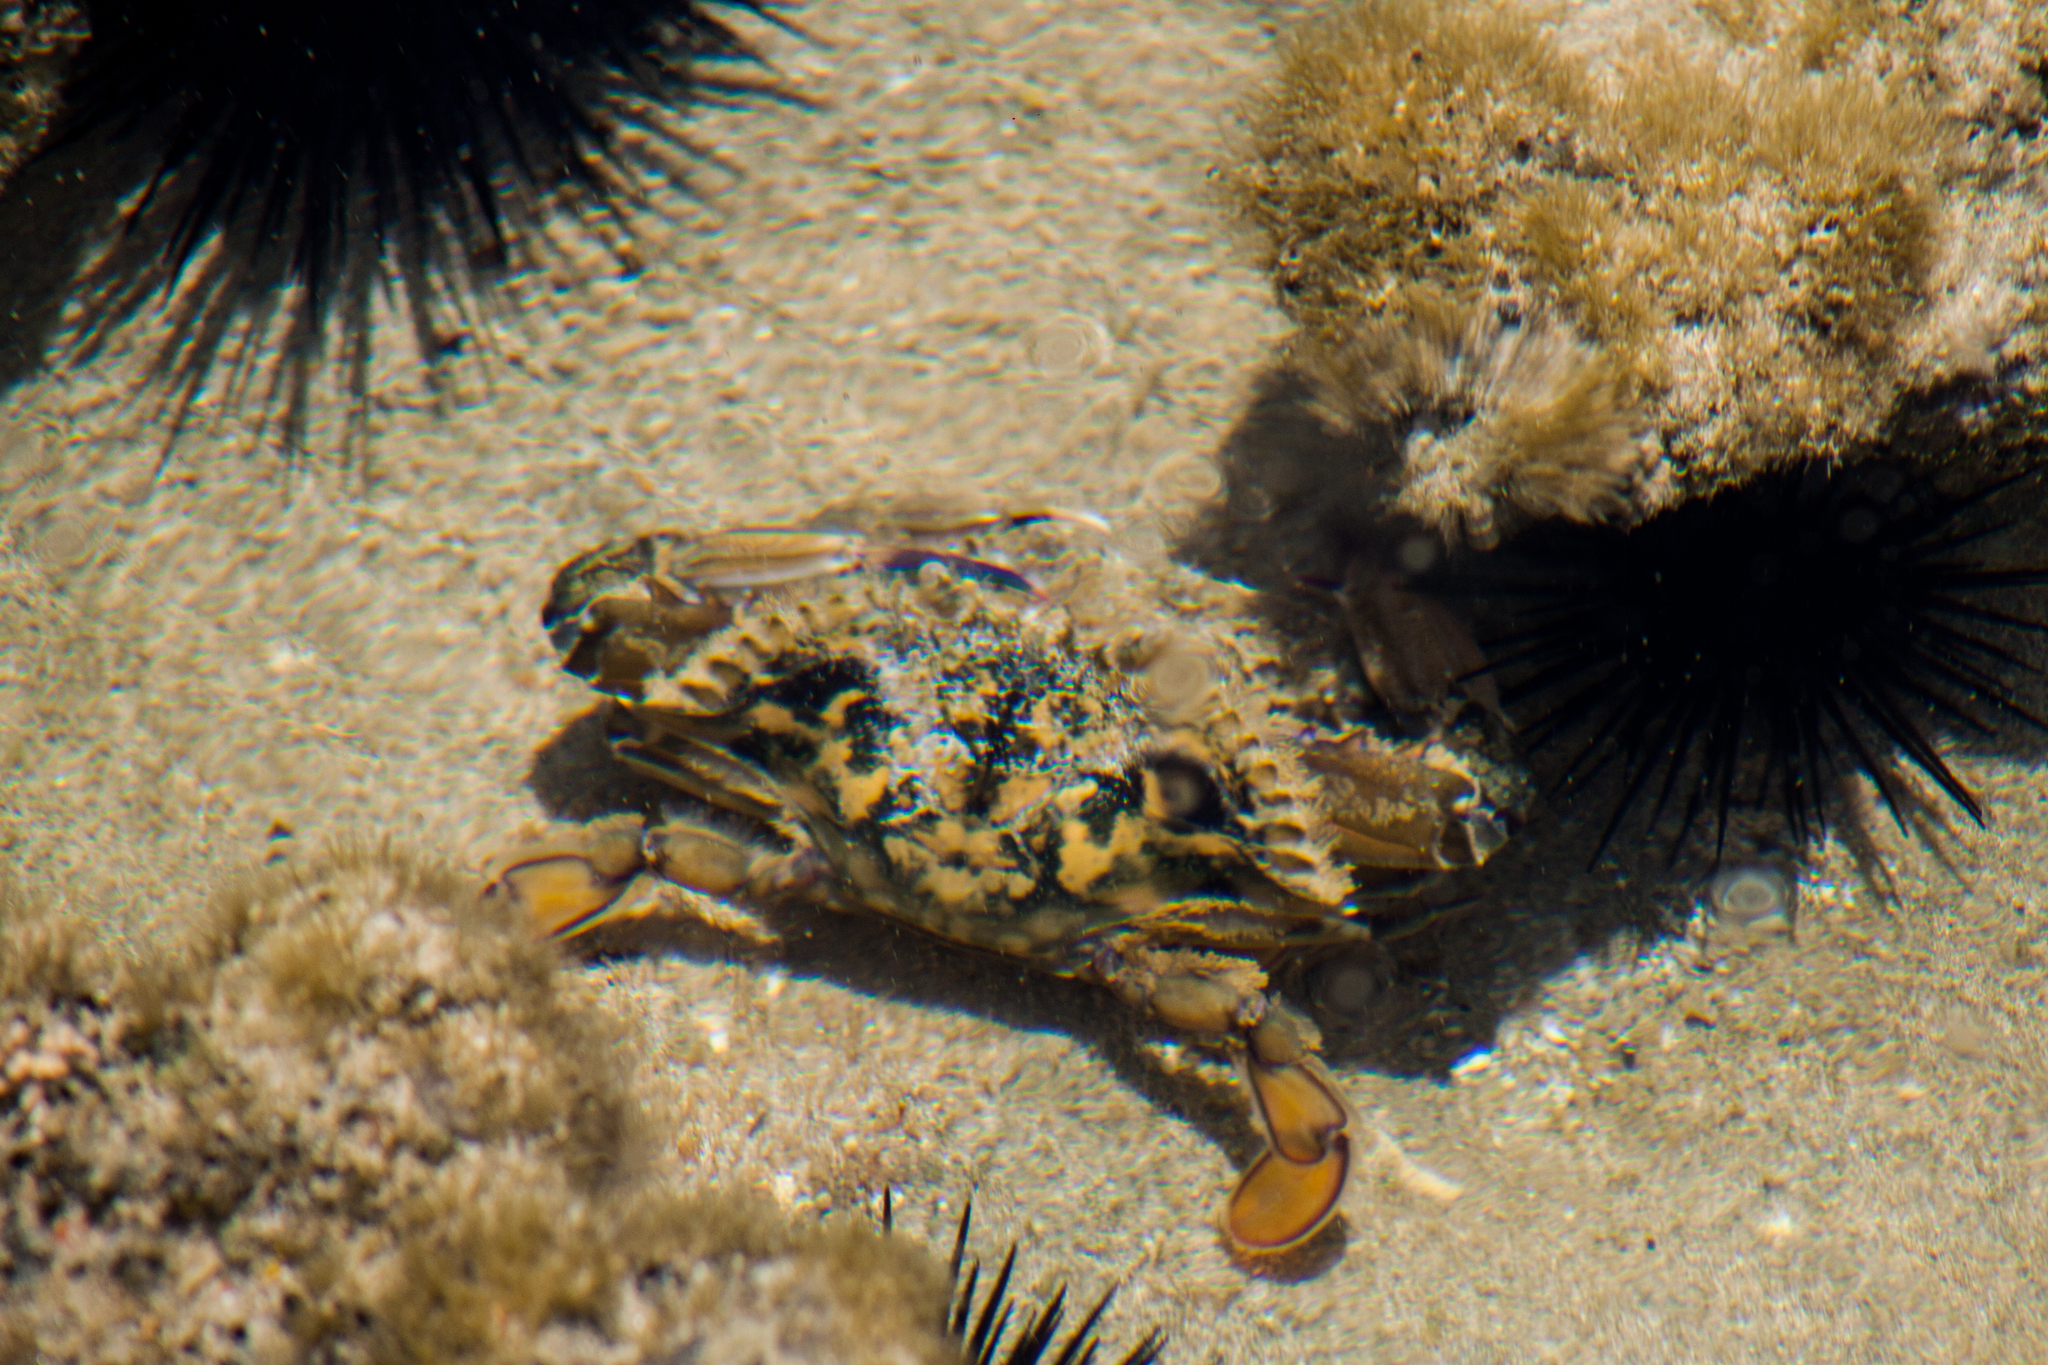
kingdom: Animalia
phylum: Arthropoda
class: Malacostraca
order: Decapoda
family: Portunidae
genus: Callinectes
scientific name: Callinectes marginatus
